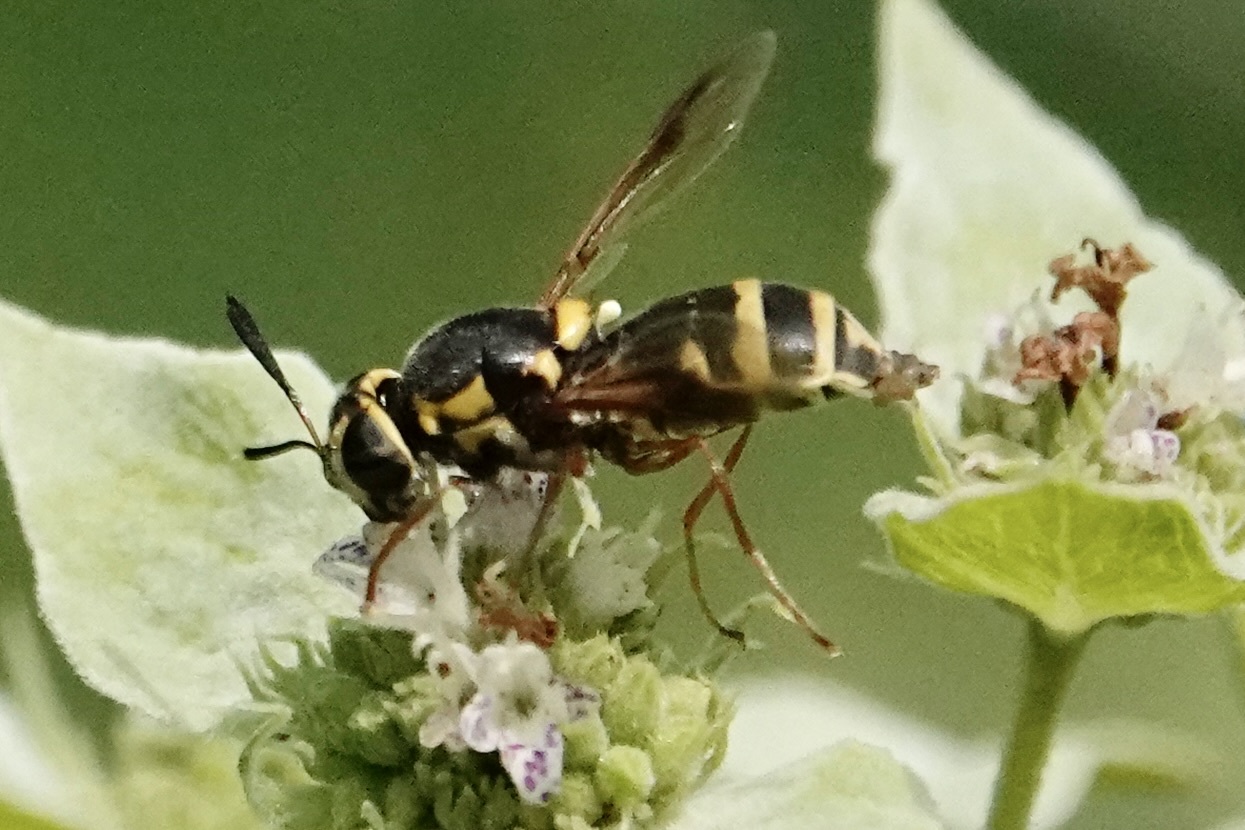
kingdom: Animalia
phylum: Arthropoda
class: Insecta
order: Diptera
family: Stratiomyidae
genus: Hoplitimyia
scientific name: Hoplitimyia constans
